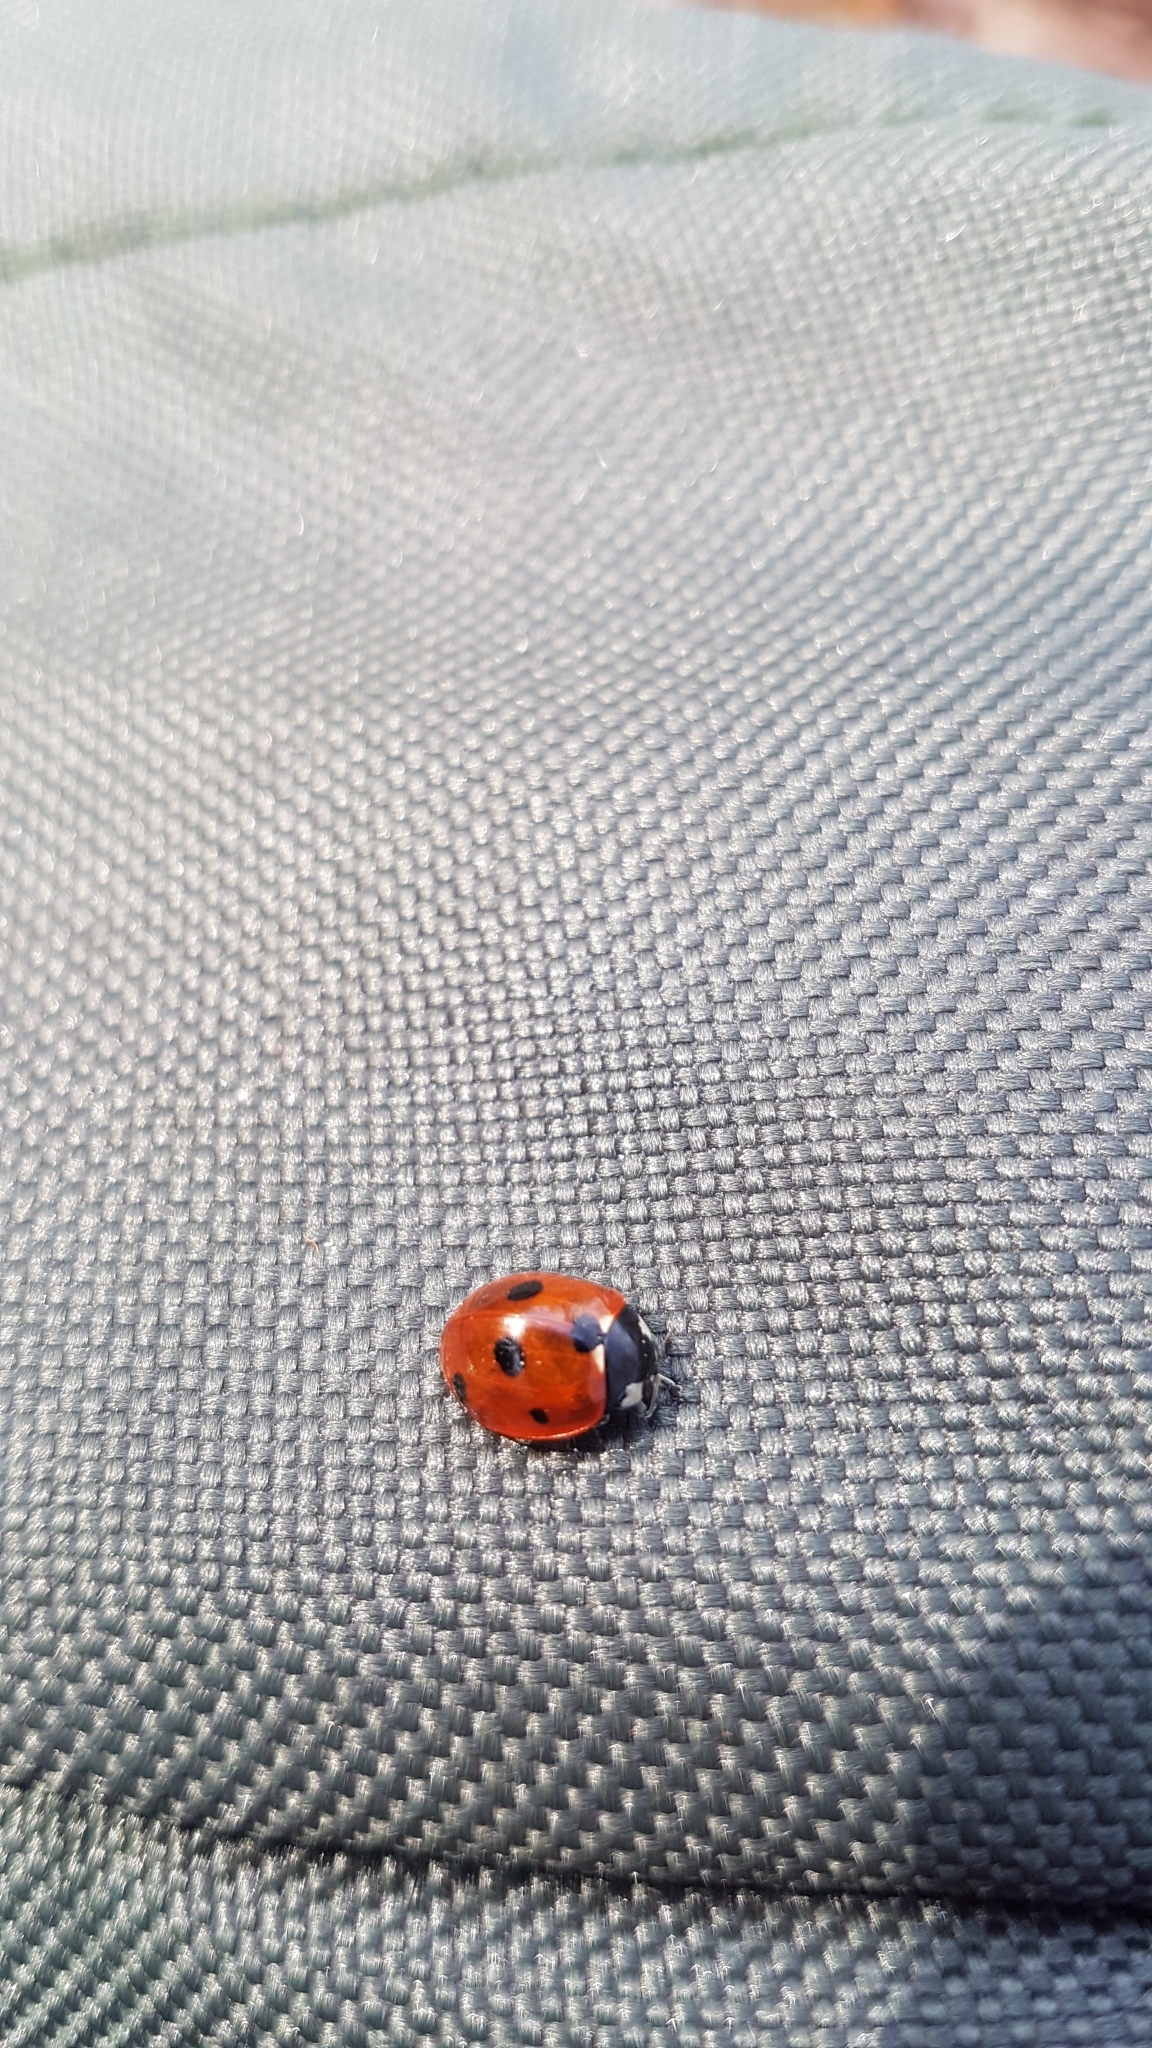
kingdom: Animalia
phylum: Arthropoda
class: Insecta
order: Coleoptera
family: Coccinellidae
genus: Coccinella
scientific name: Coccinella septempunctata
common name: Sevenspotted lady beetle
